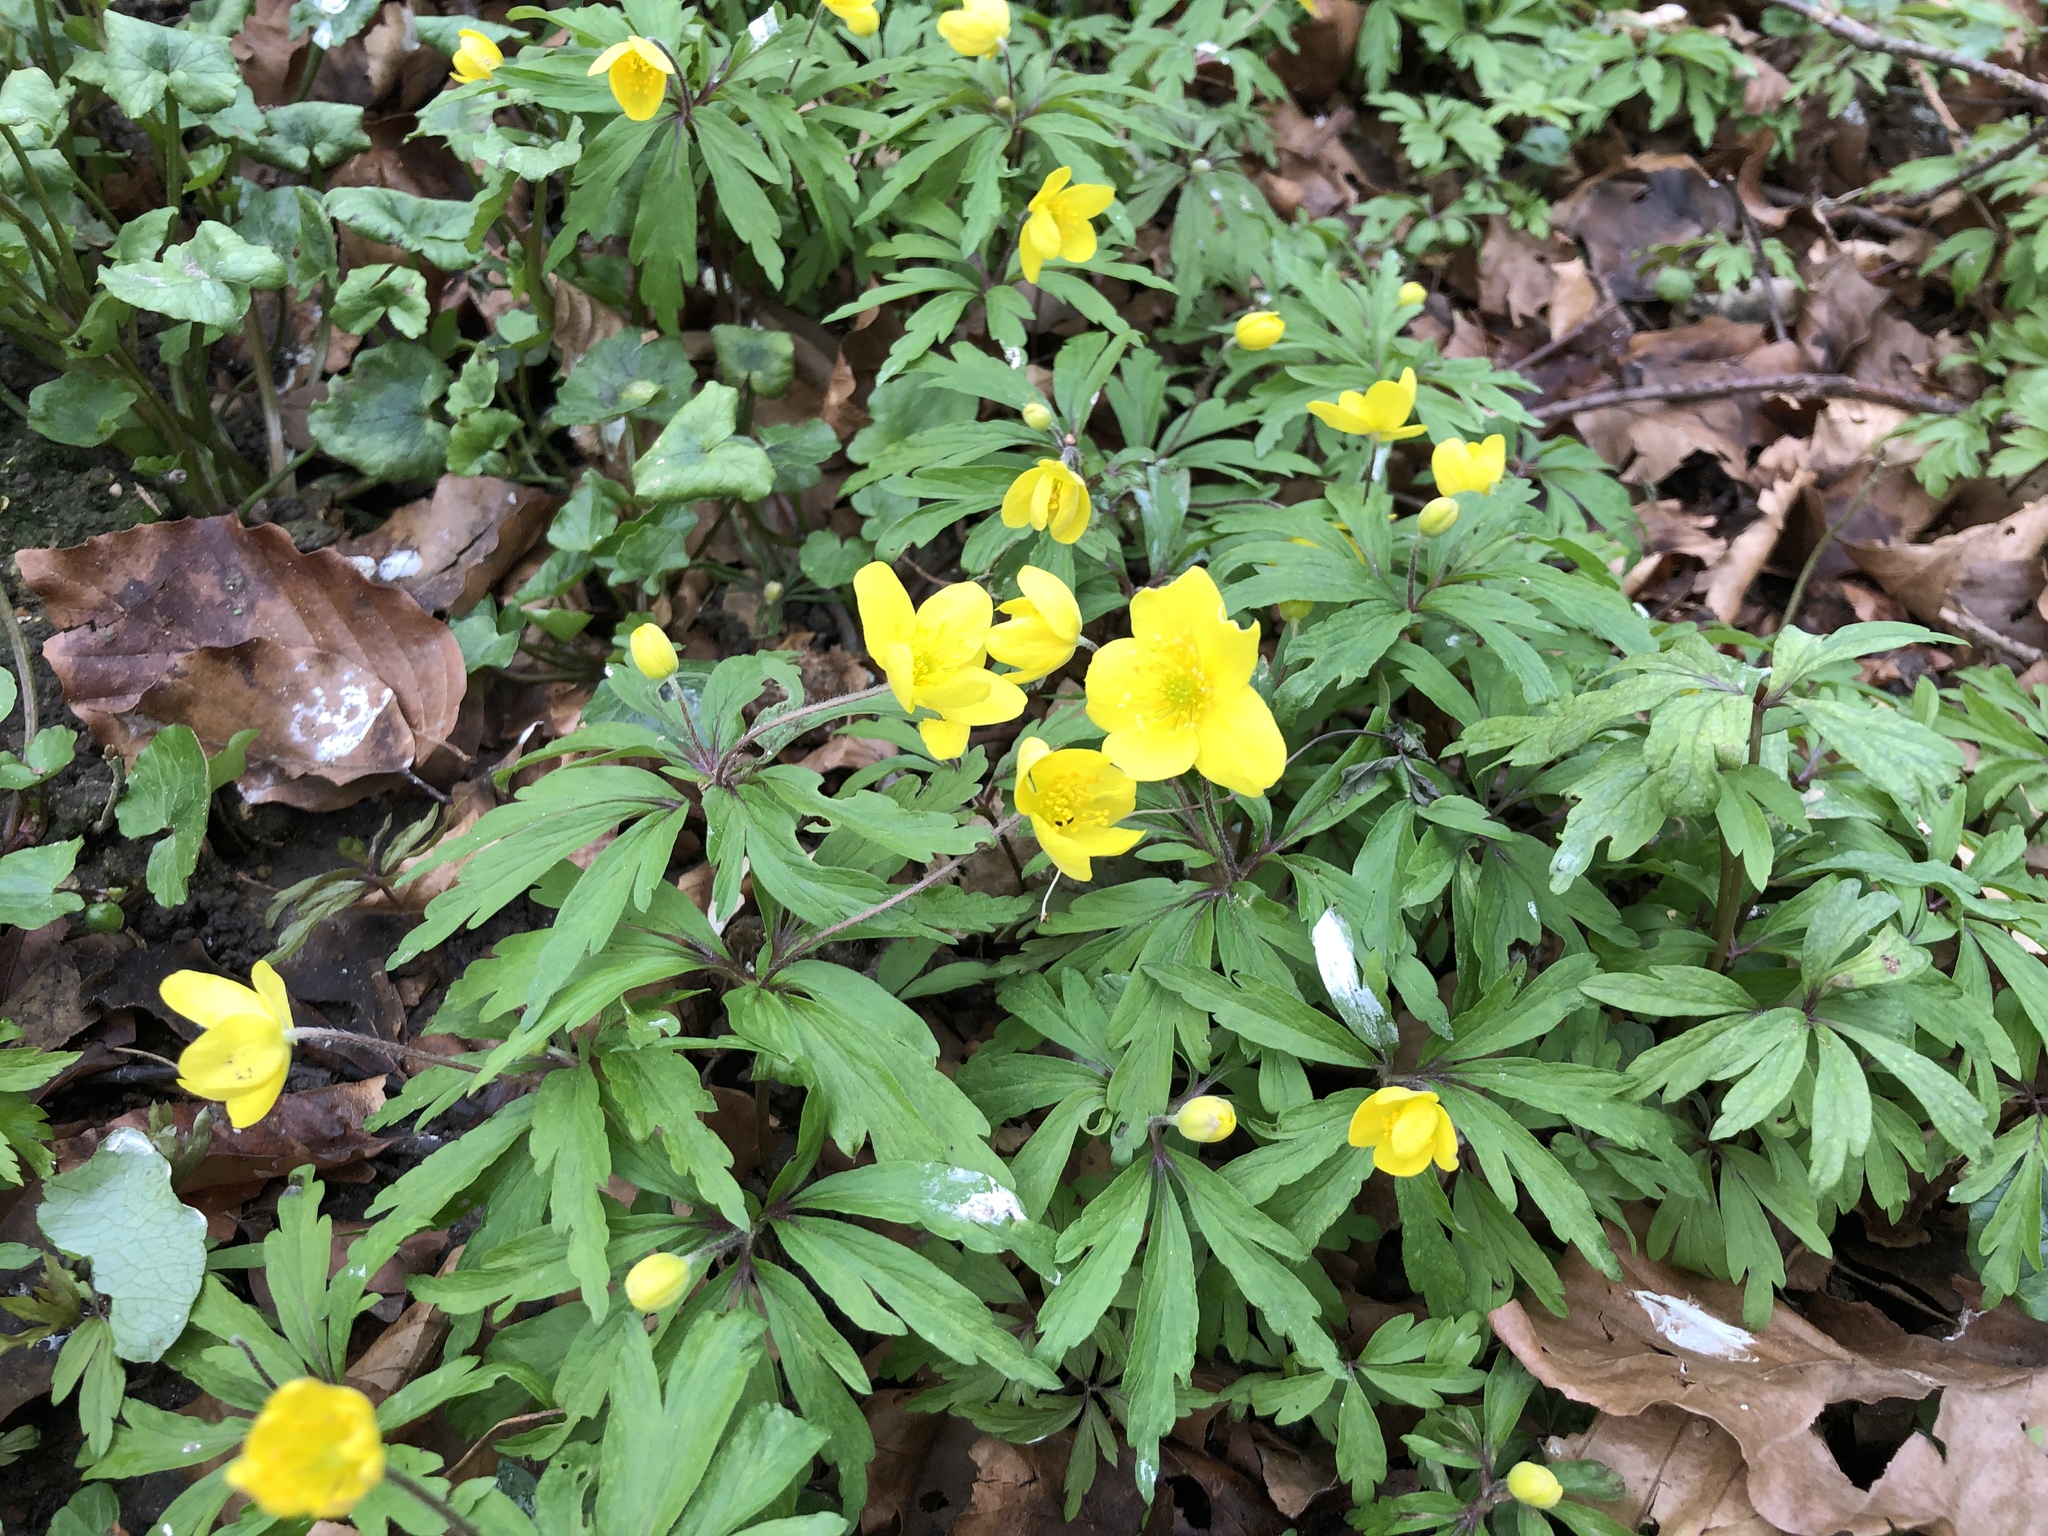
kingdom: Plantae
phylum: Tracheophyta
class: Magnoliopsida
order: Ranunculales
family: Ranunculaceae
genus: Anemone
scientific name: Anemone ranunculoides
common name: Yellow anemone
